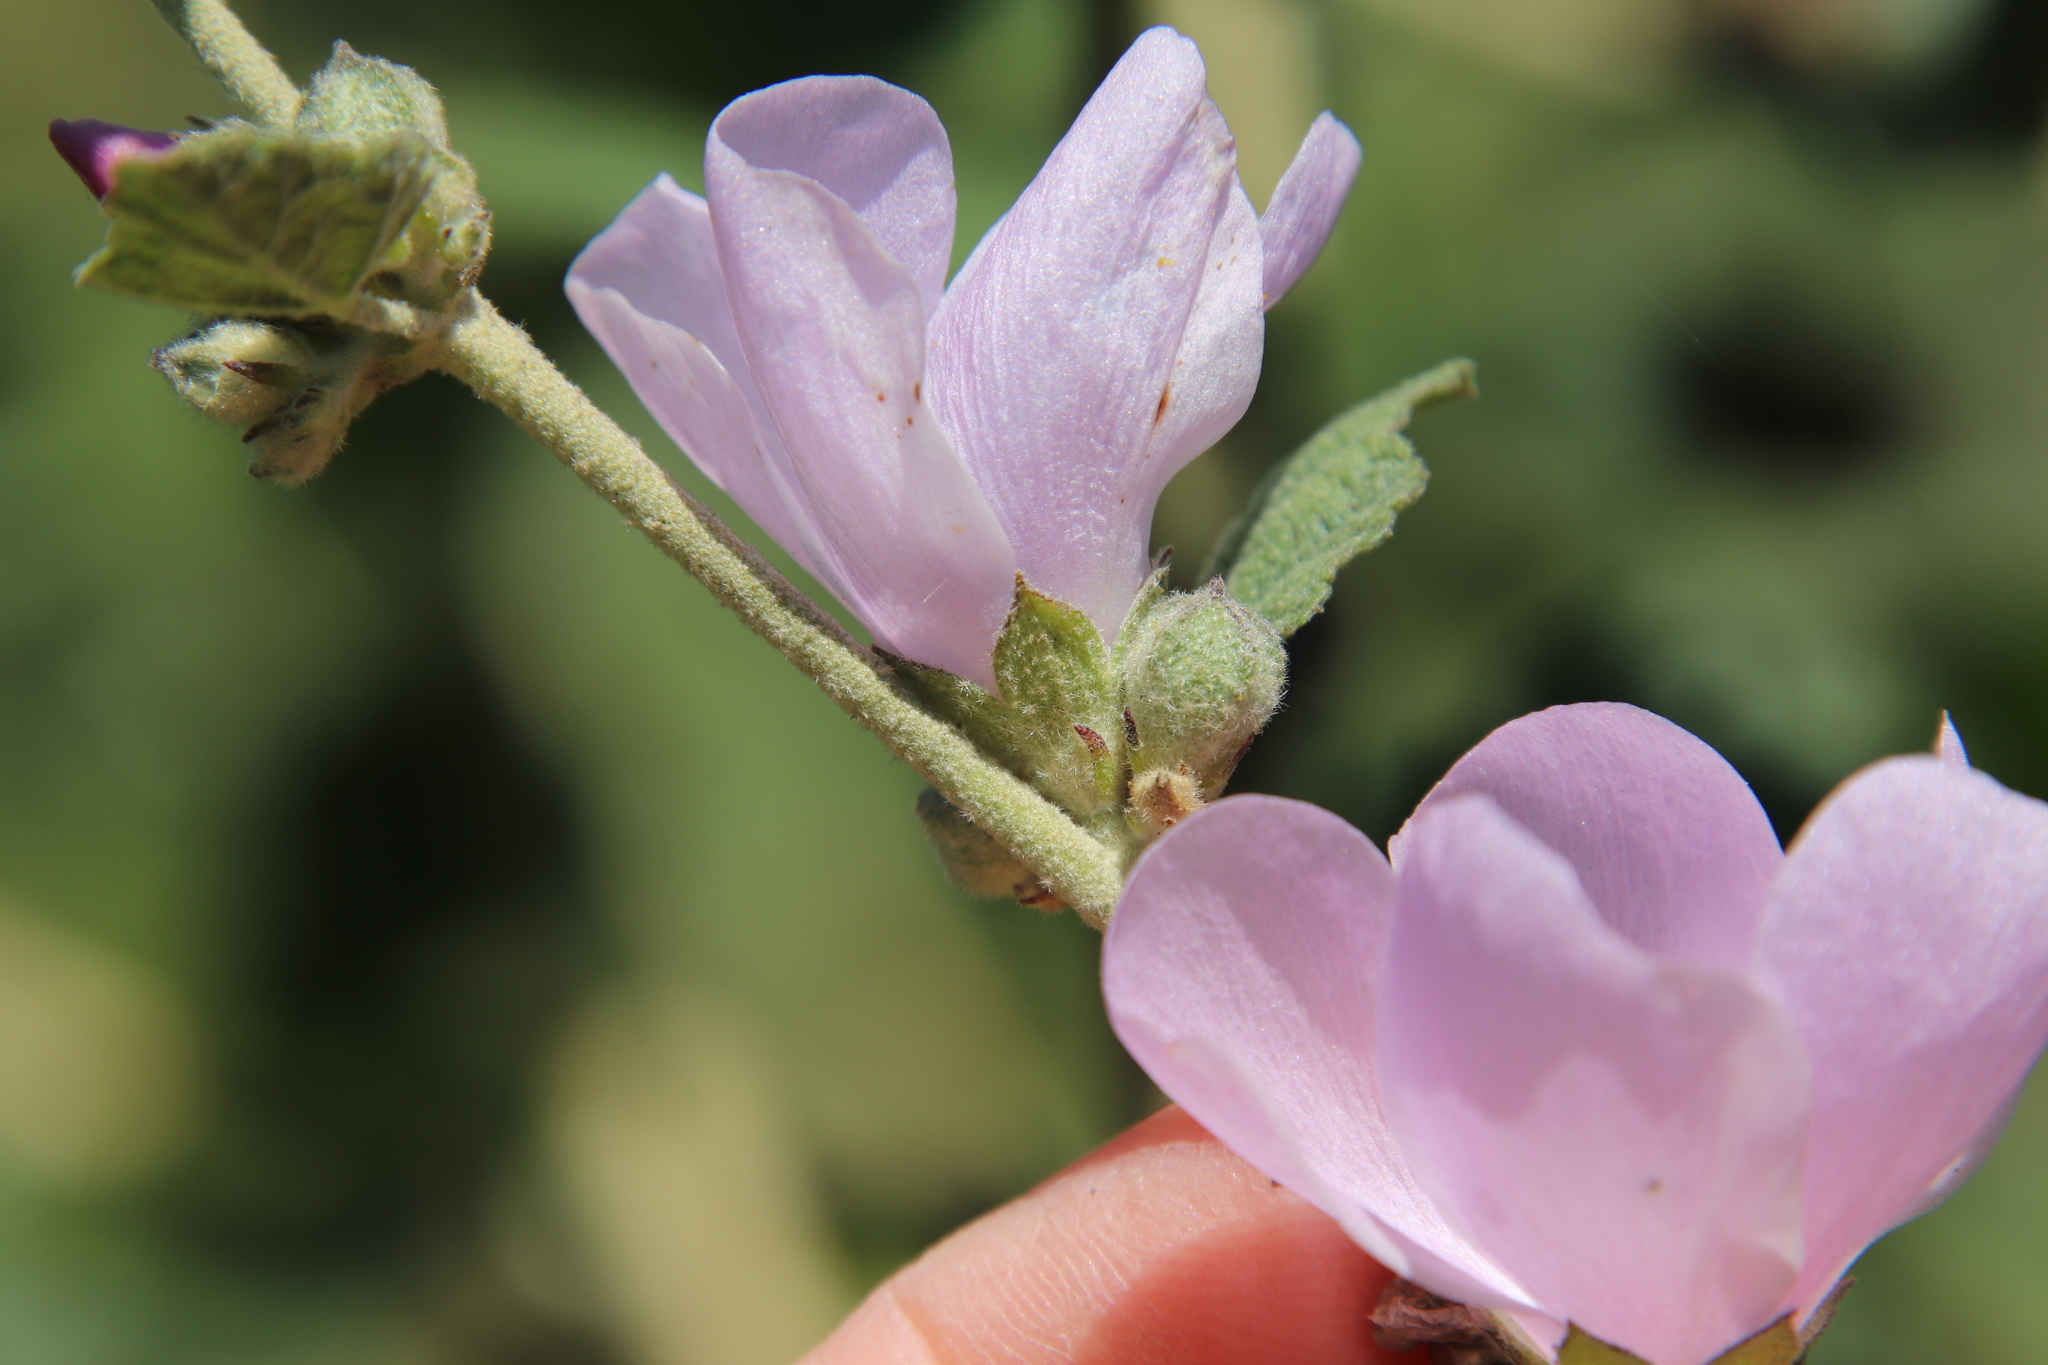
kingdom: Plantae
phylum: Tracheophyta
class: Magnoliopsida
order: Malvales
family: Malvaceae
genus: Malacothamnus
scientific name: Malacothamnus fasciculatus
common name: Sant cruz island bush-mallow
